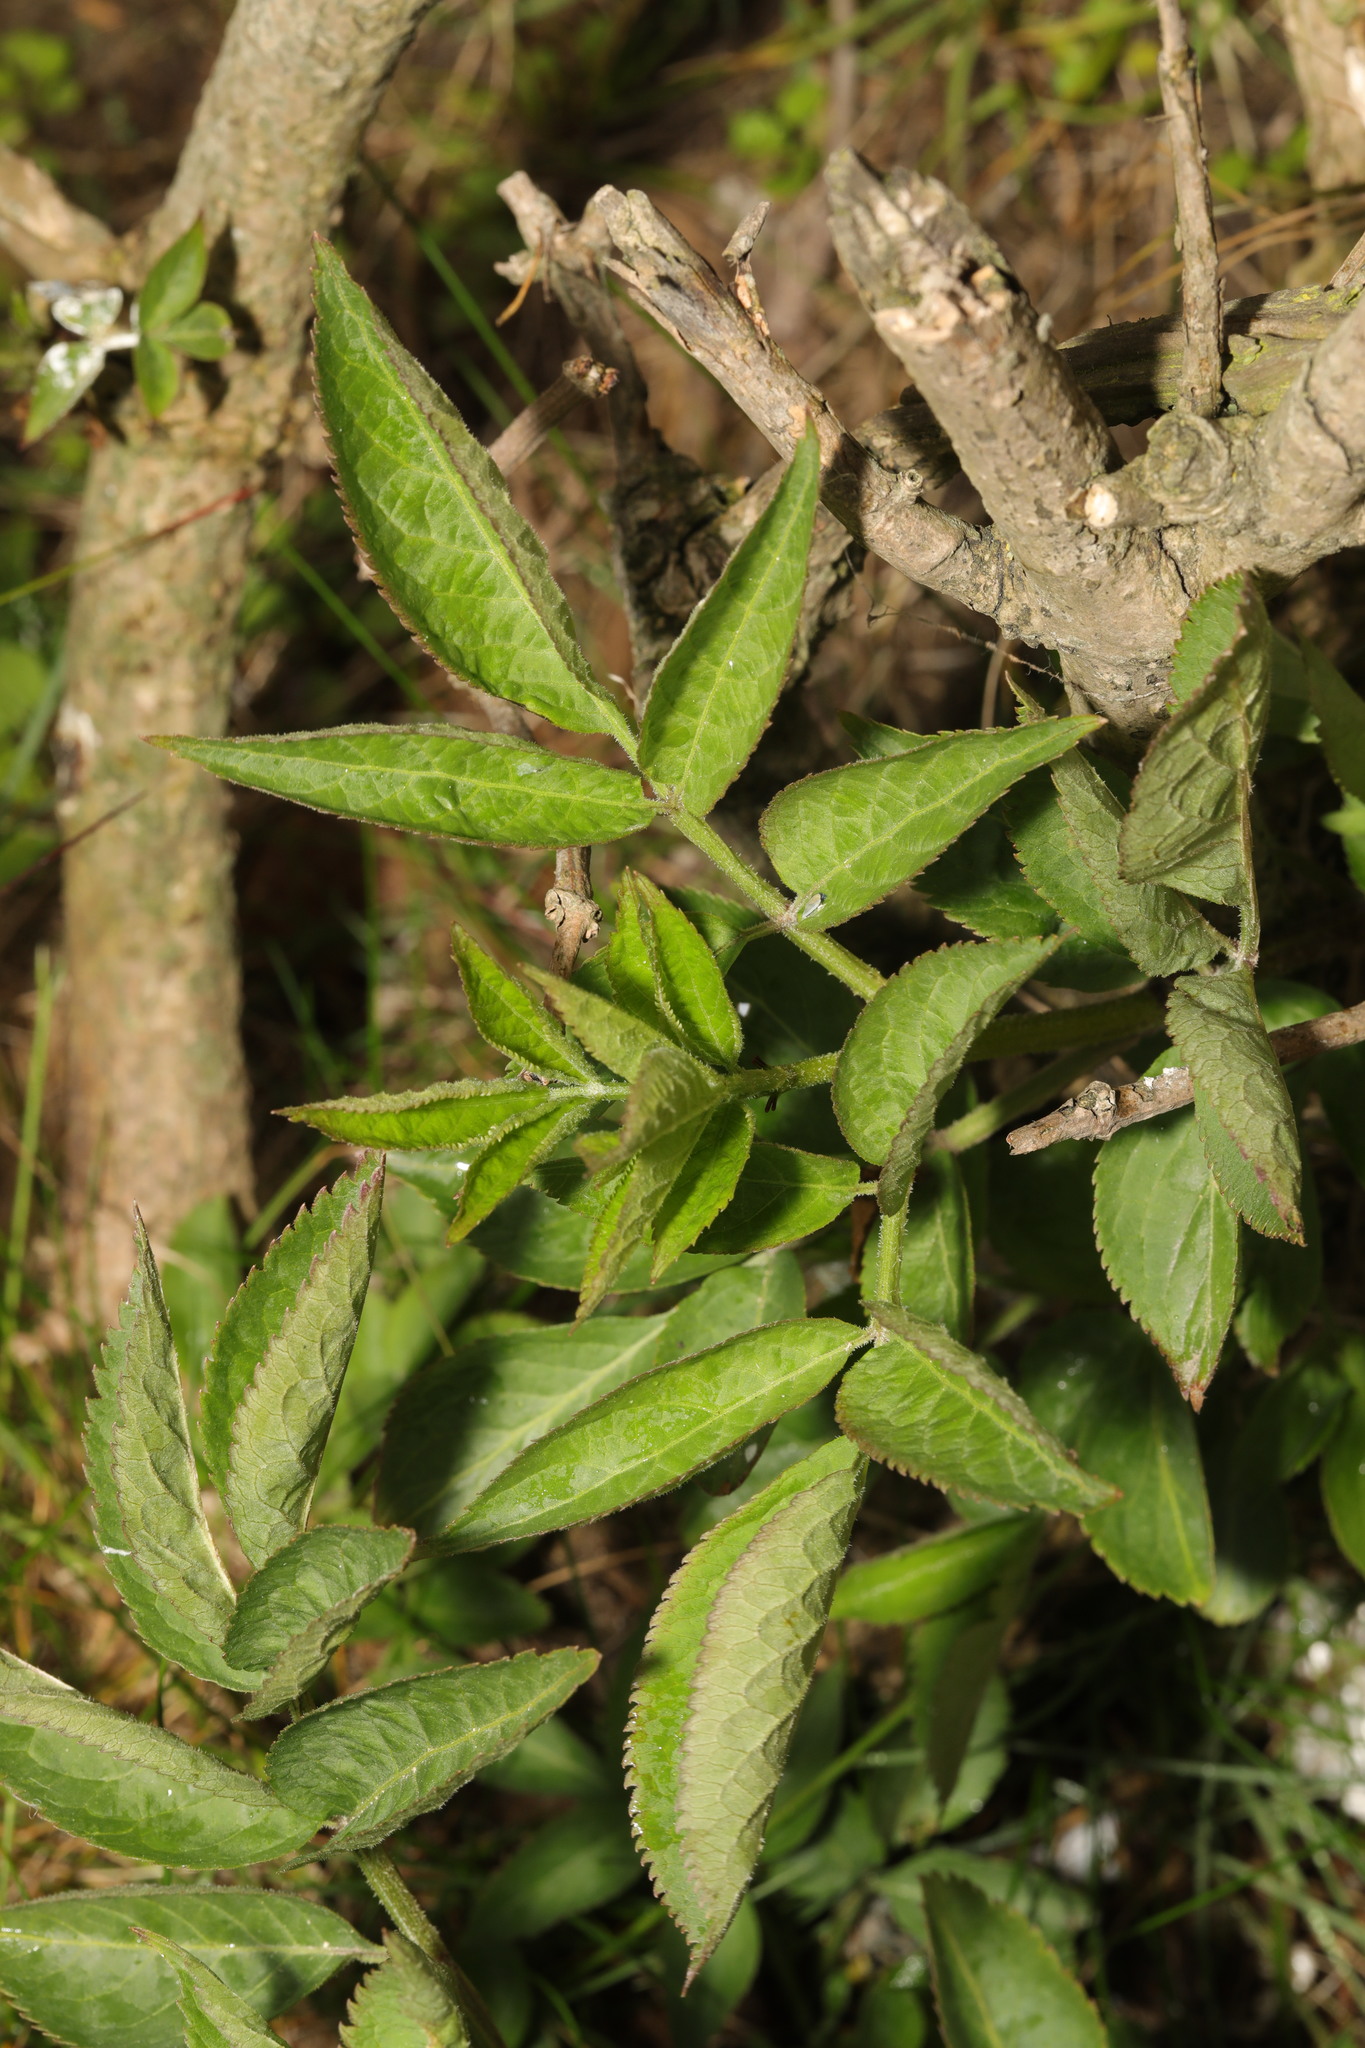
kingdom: Plantae
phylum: Tracheophyta
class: Magnoliopsida
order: Dipsacales
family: Viburnaceae
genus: Sambucus
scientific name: Sambucus nigra
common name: Elder
